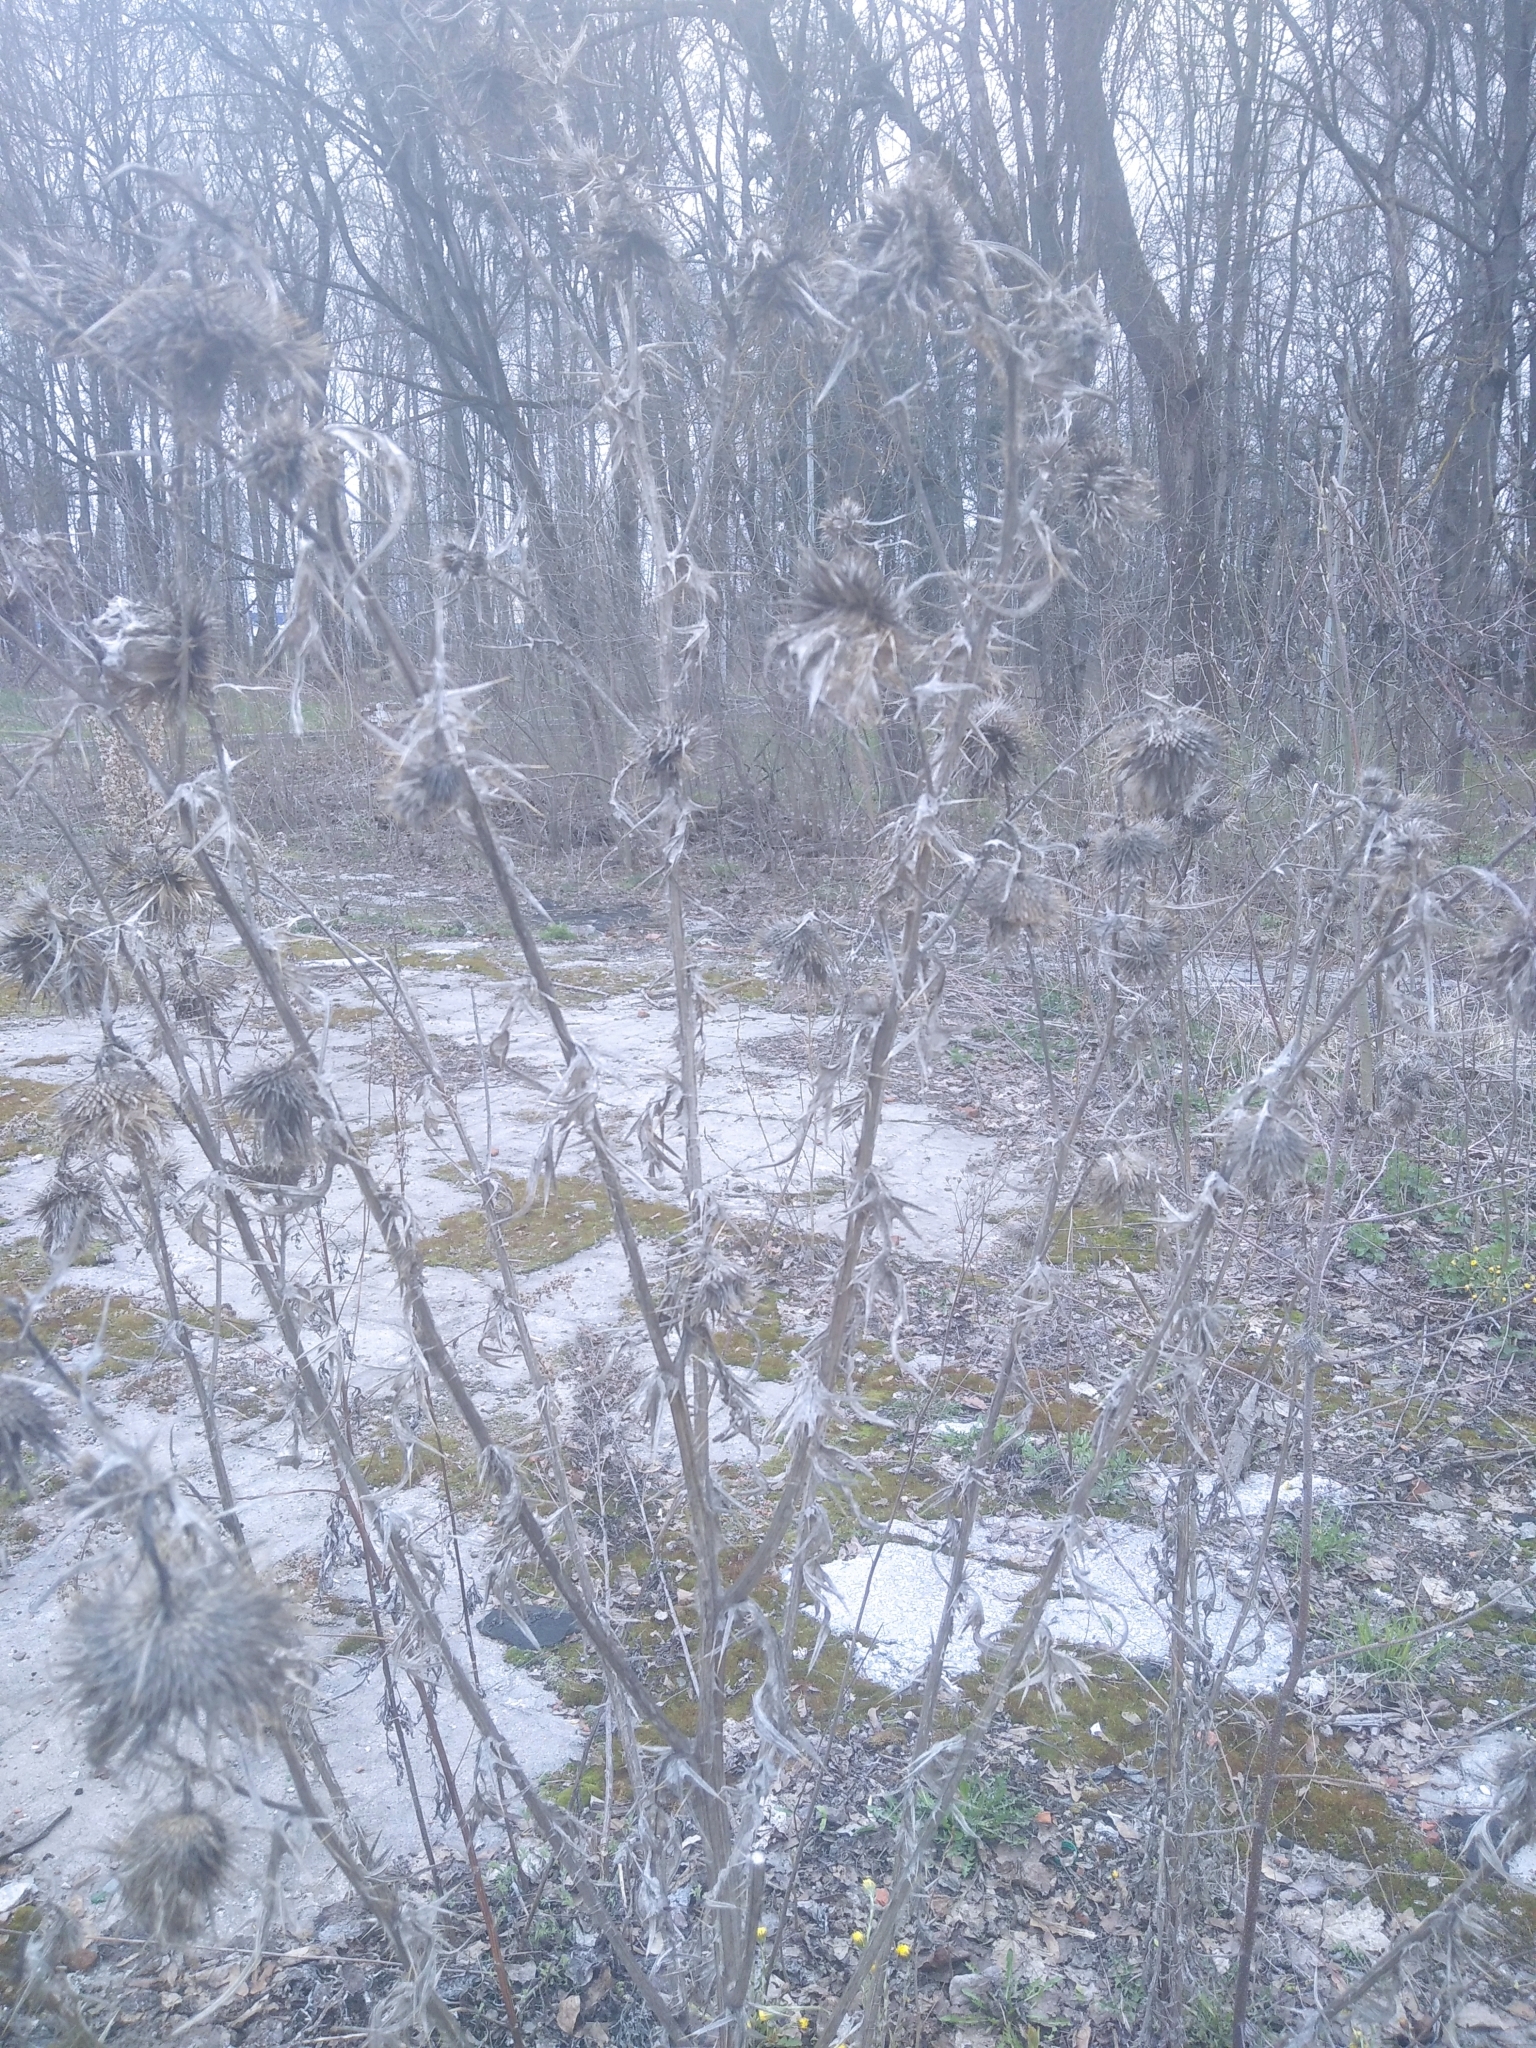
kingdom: Plantae
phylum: Tracheophyta
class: Magnoliopsida
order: Asterales
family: Asteraceae
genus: Cirsium
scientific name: Cirsium vulgare
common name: Bull thistle
